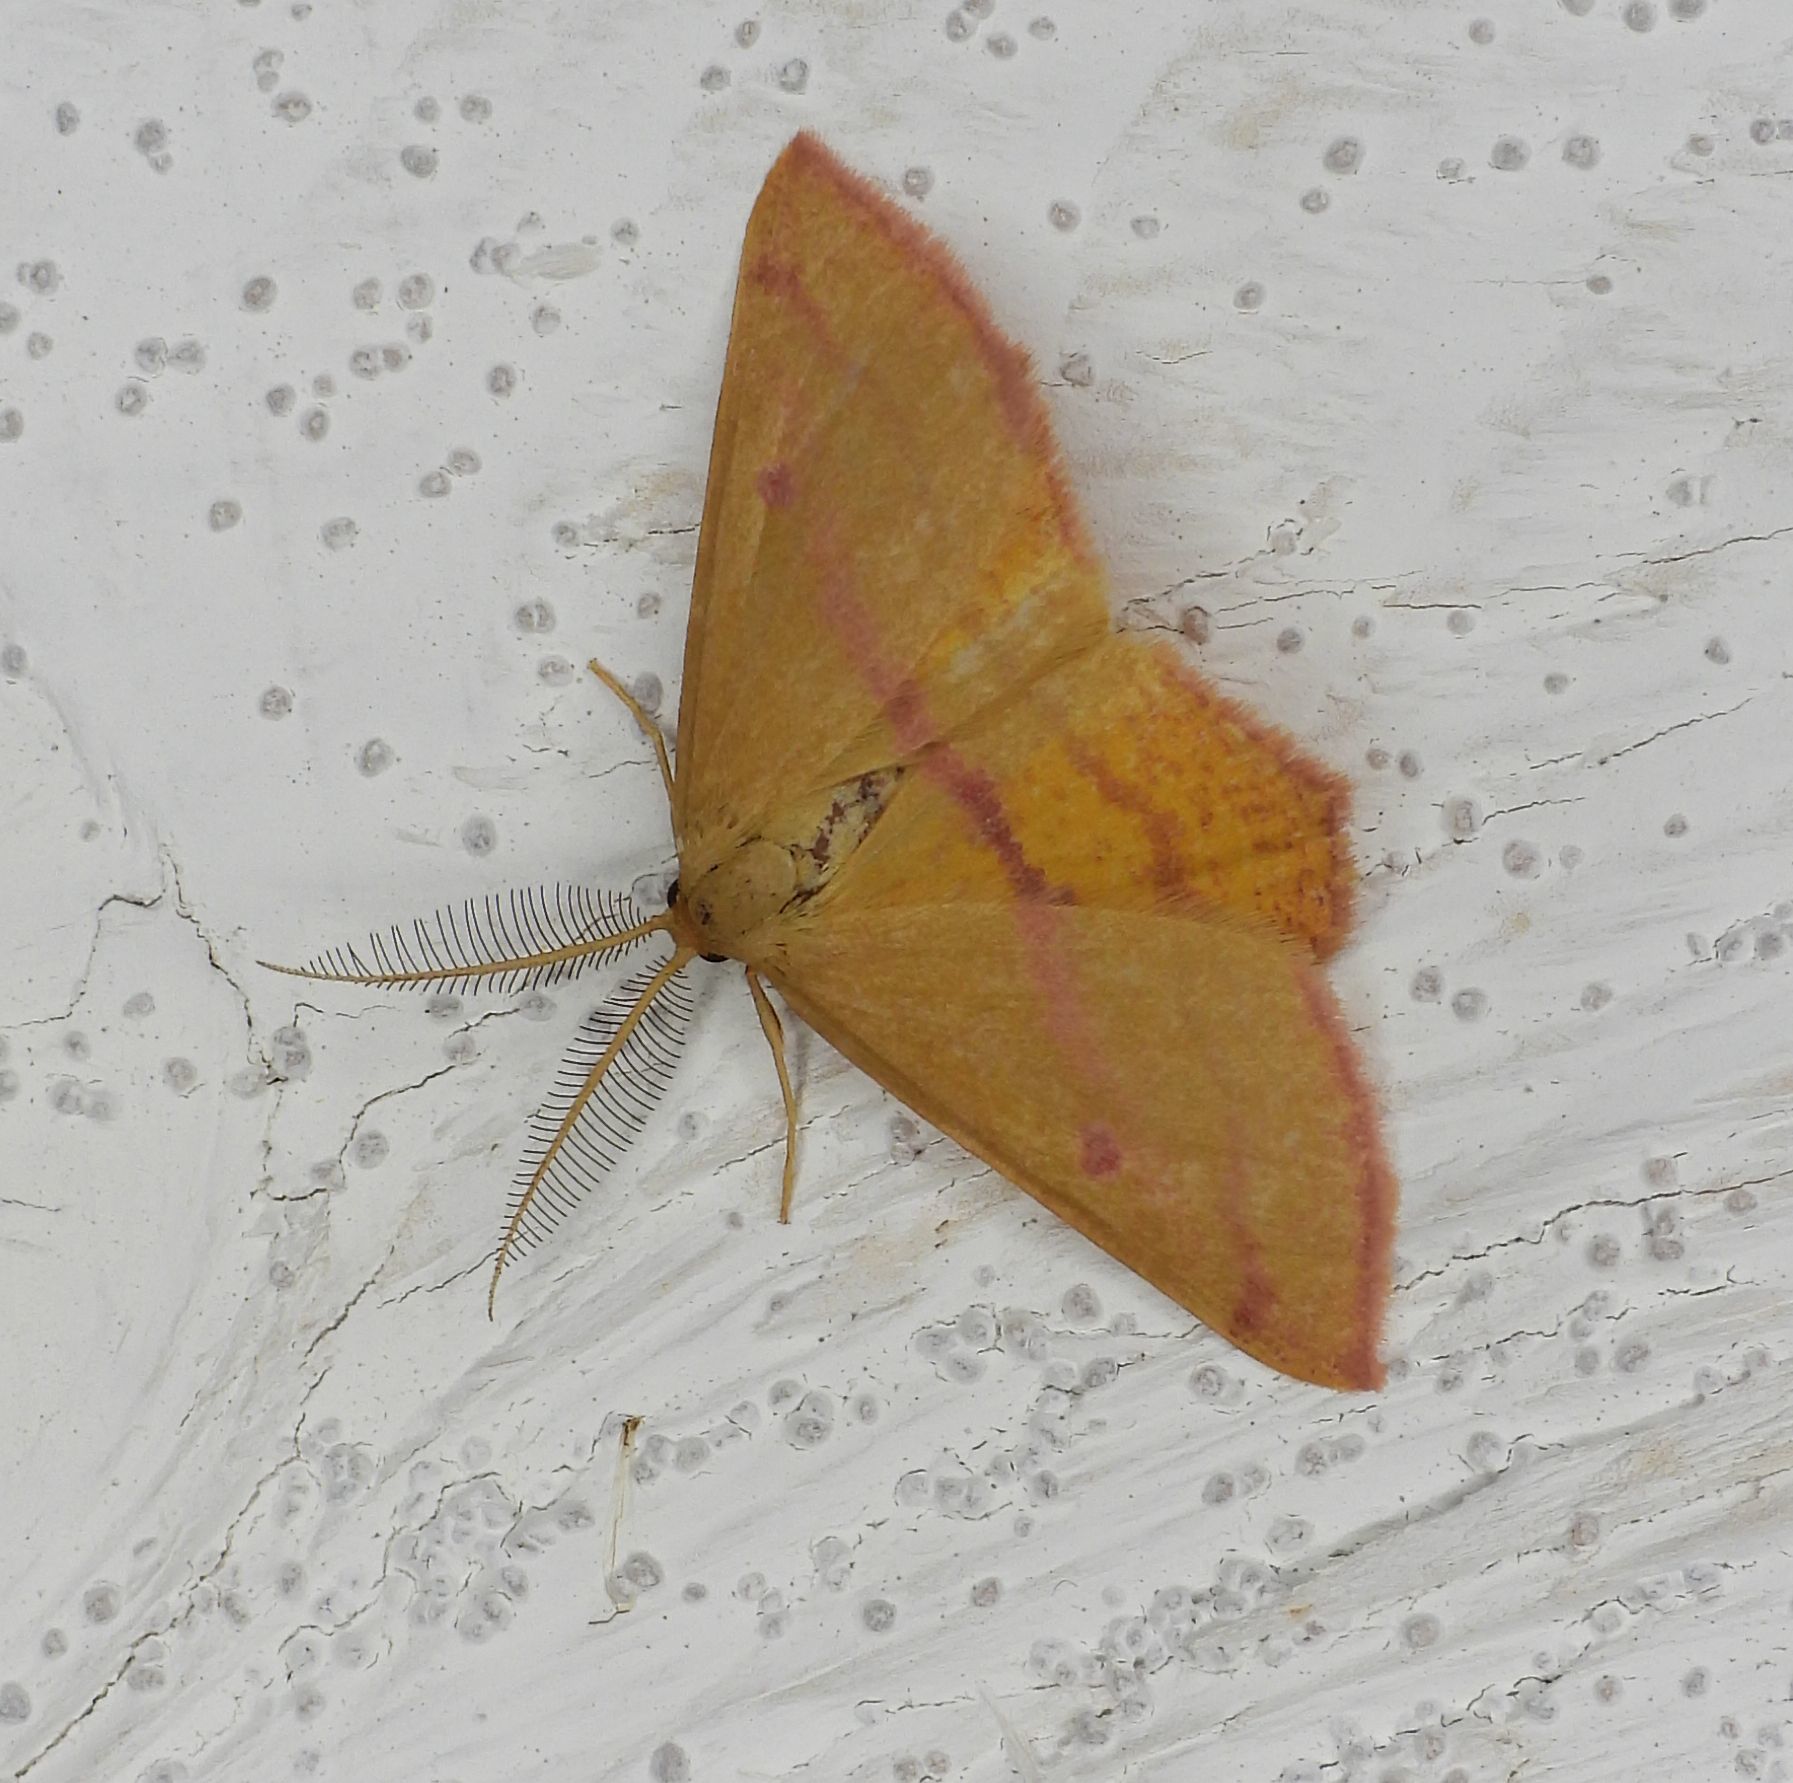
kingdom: Animalia
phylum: Arthropoda
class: Insecta
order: Lepidoptera
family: Geometridae
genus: Haematopis
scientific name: Haematopis grataria
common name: Chickweed geometer
